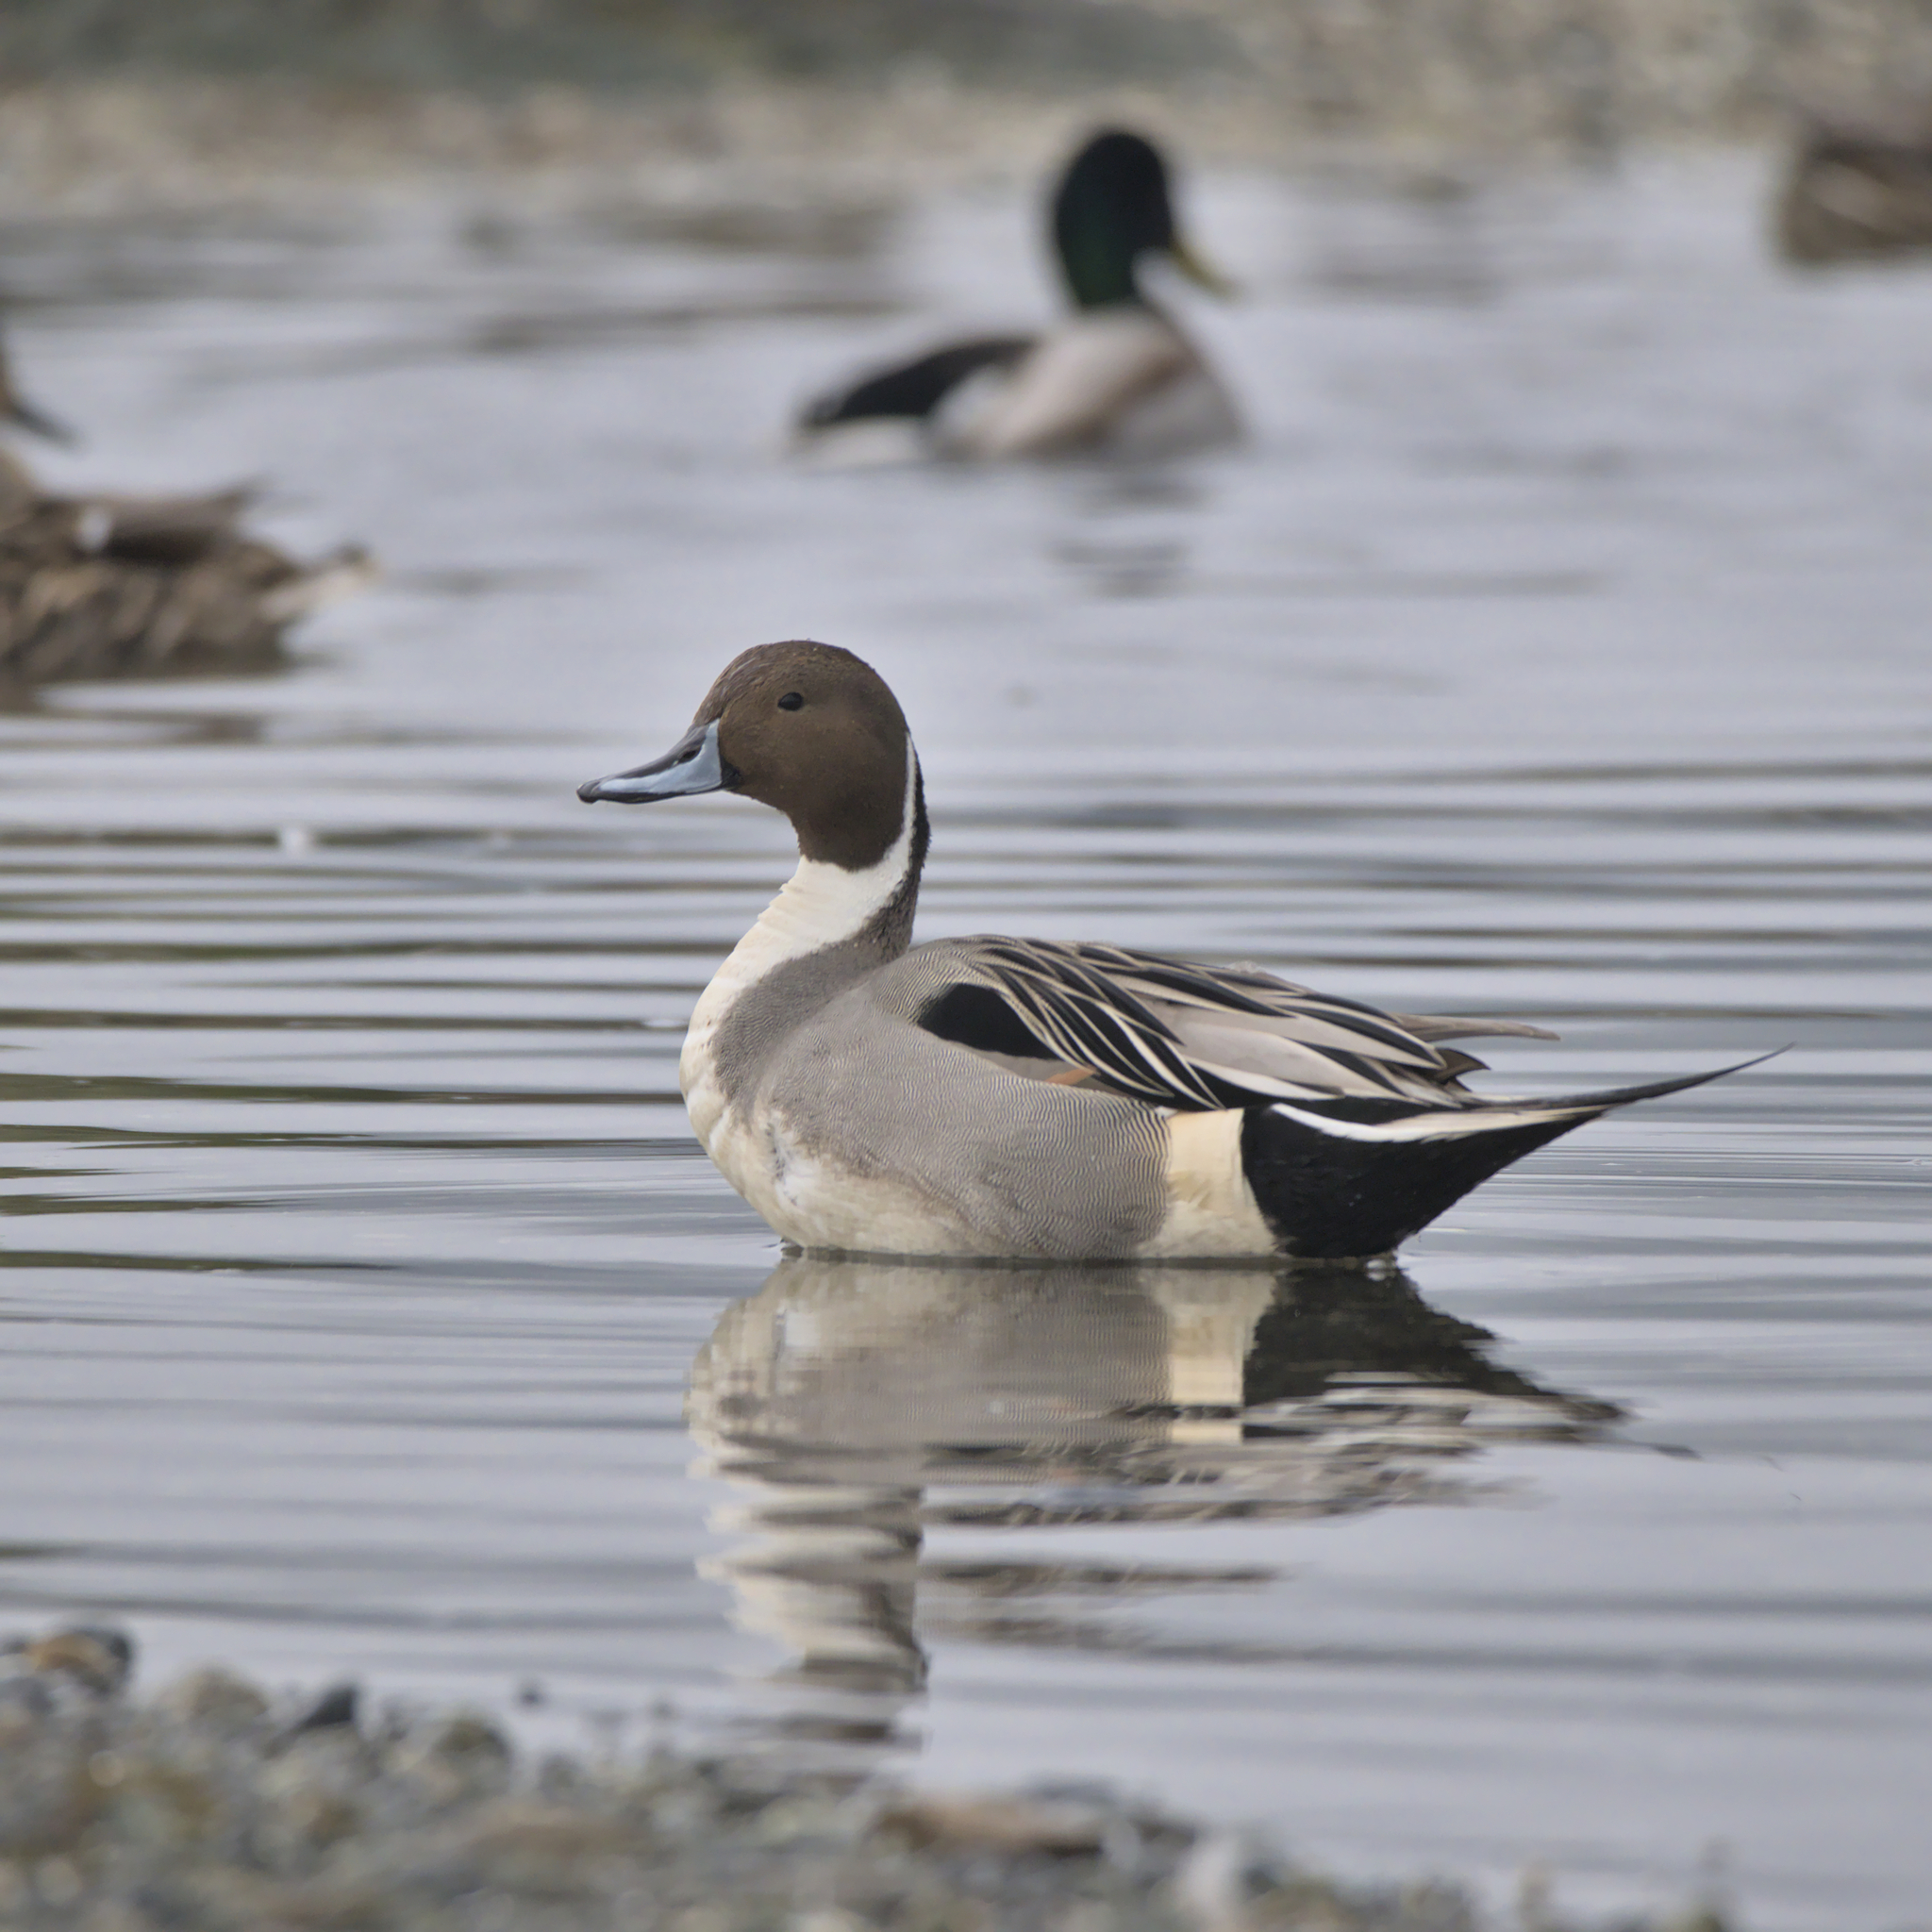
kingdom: Animalia
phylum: Chordata
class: Aves
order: Anseriformes
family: Anatidae
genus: Anas
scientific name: Anas acuta
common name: Northern pintail
